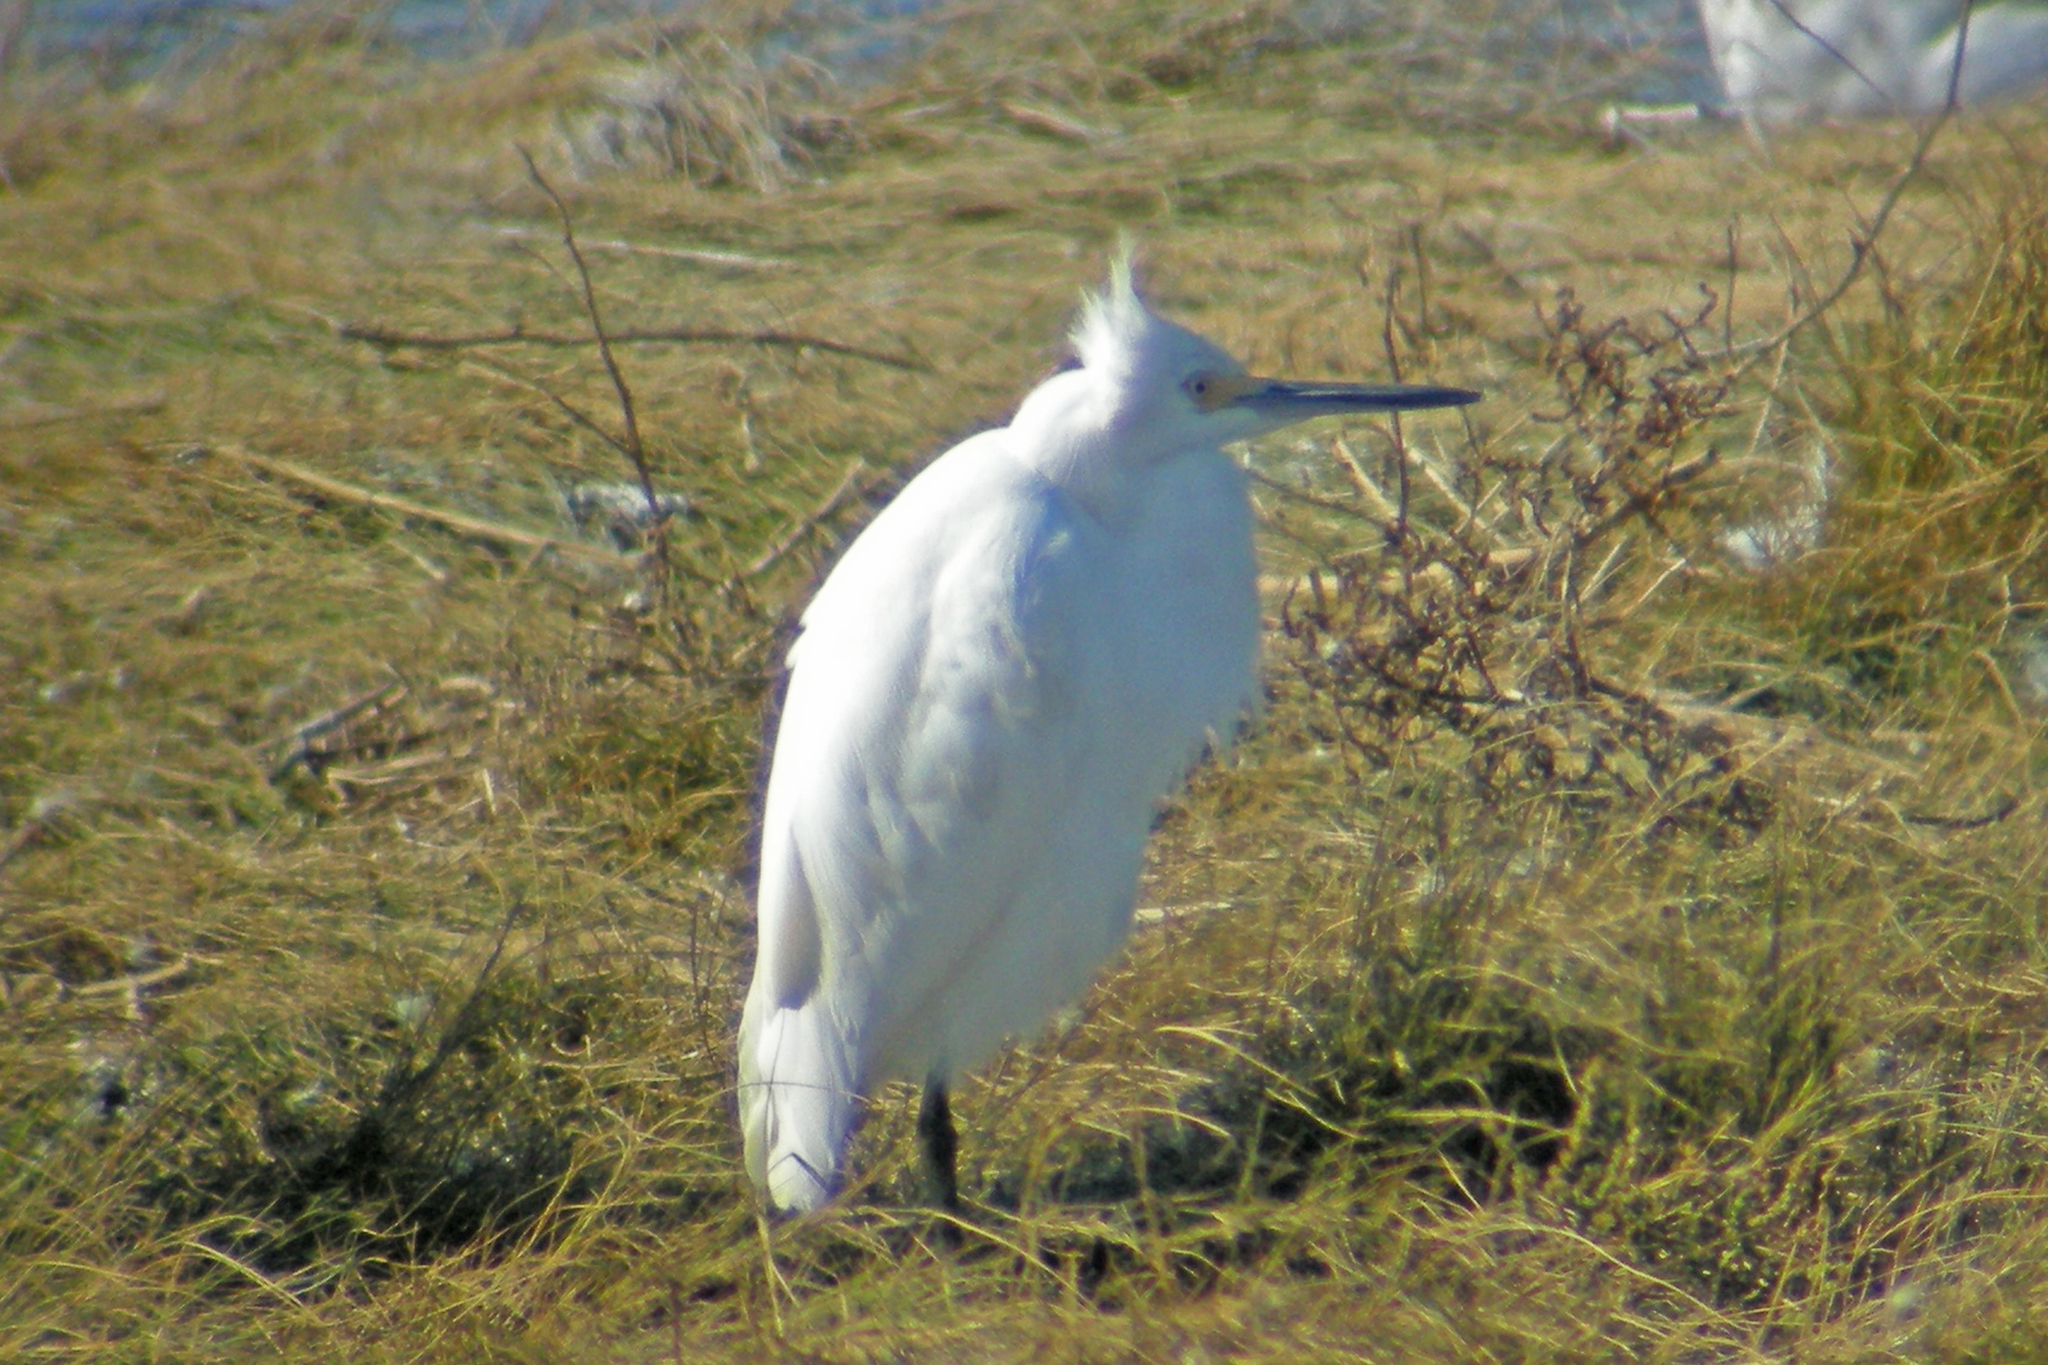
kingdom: Animalia
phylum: Chordata
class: Aves
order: Pelecaniformes
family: Ardeidae
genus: Egretta
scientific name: Egretta thula
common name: Snowy egret
